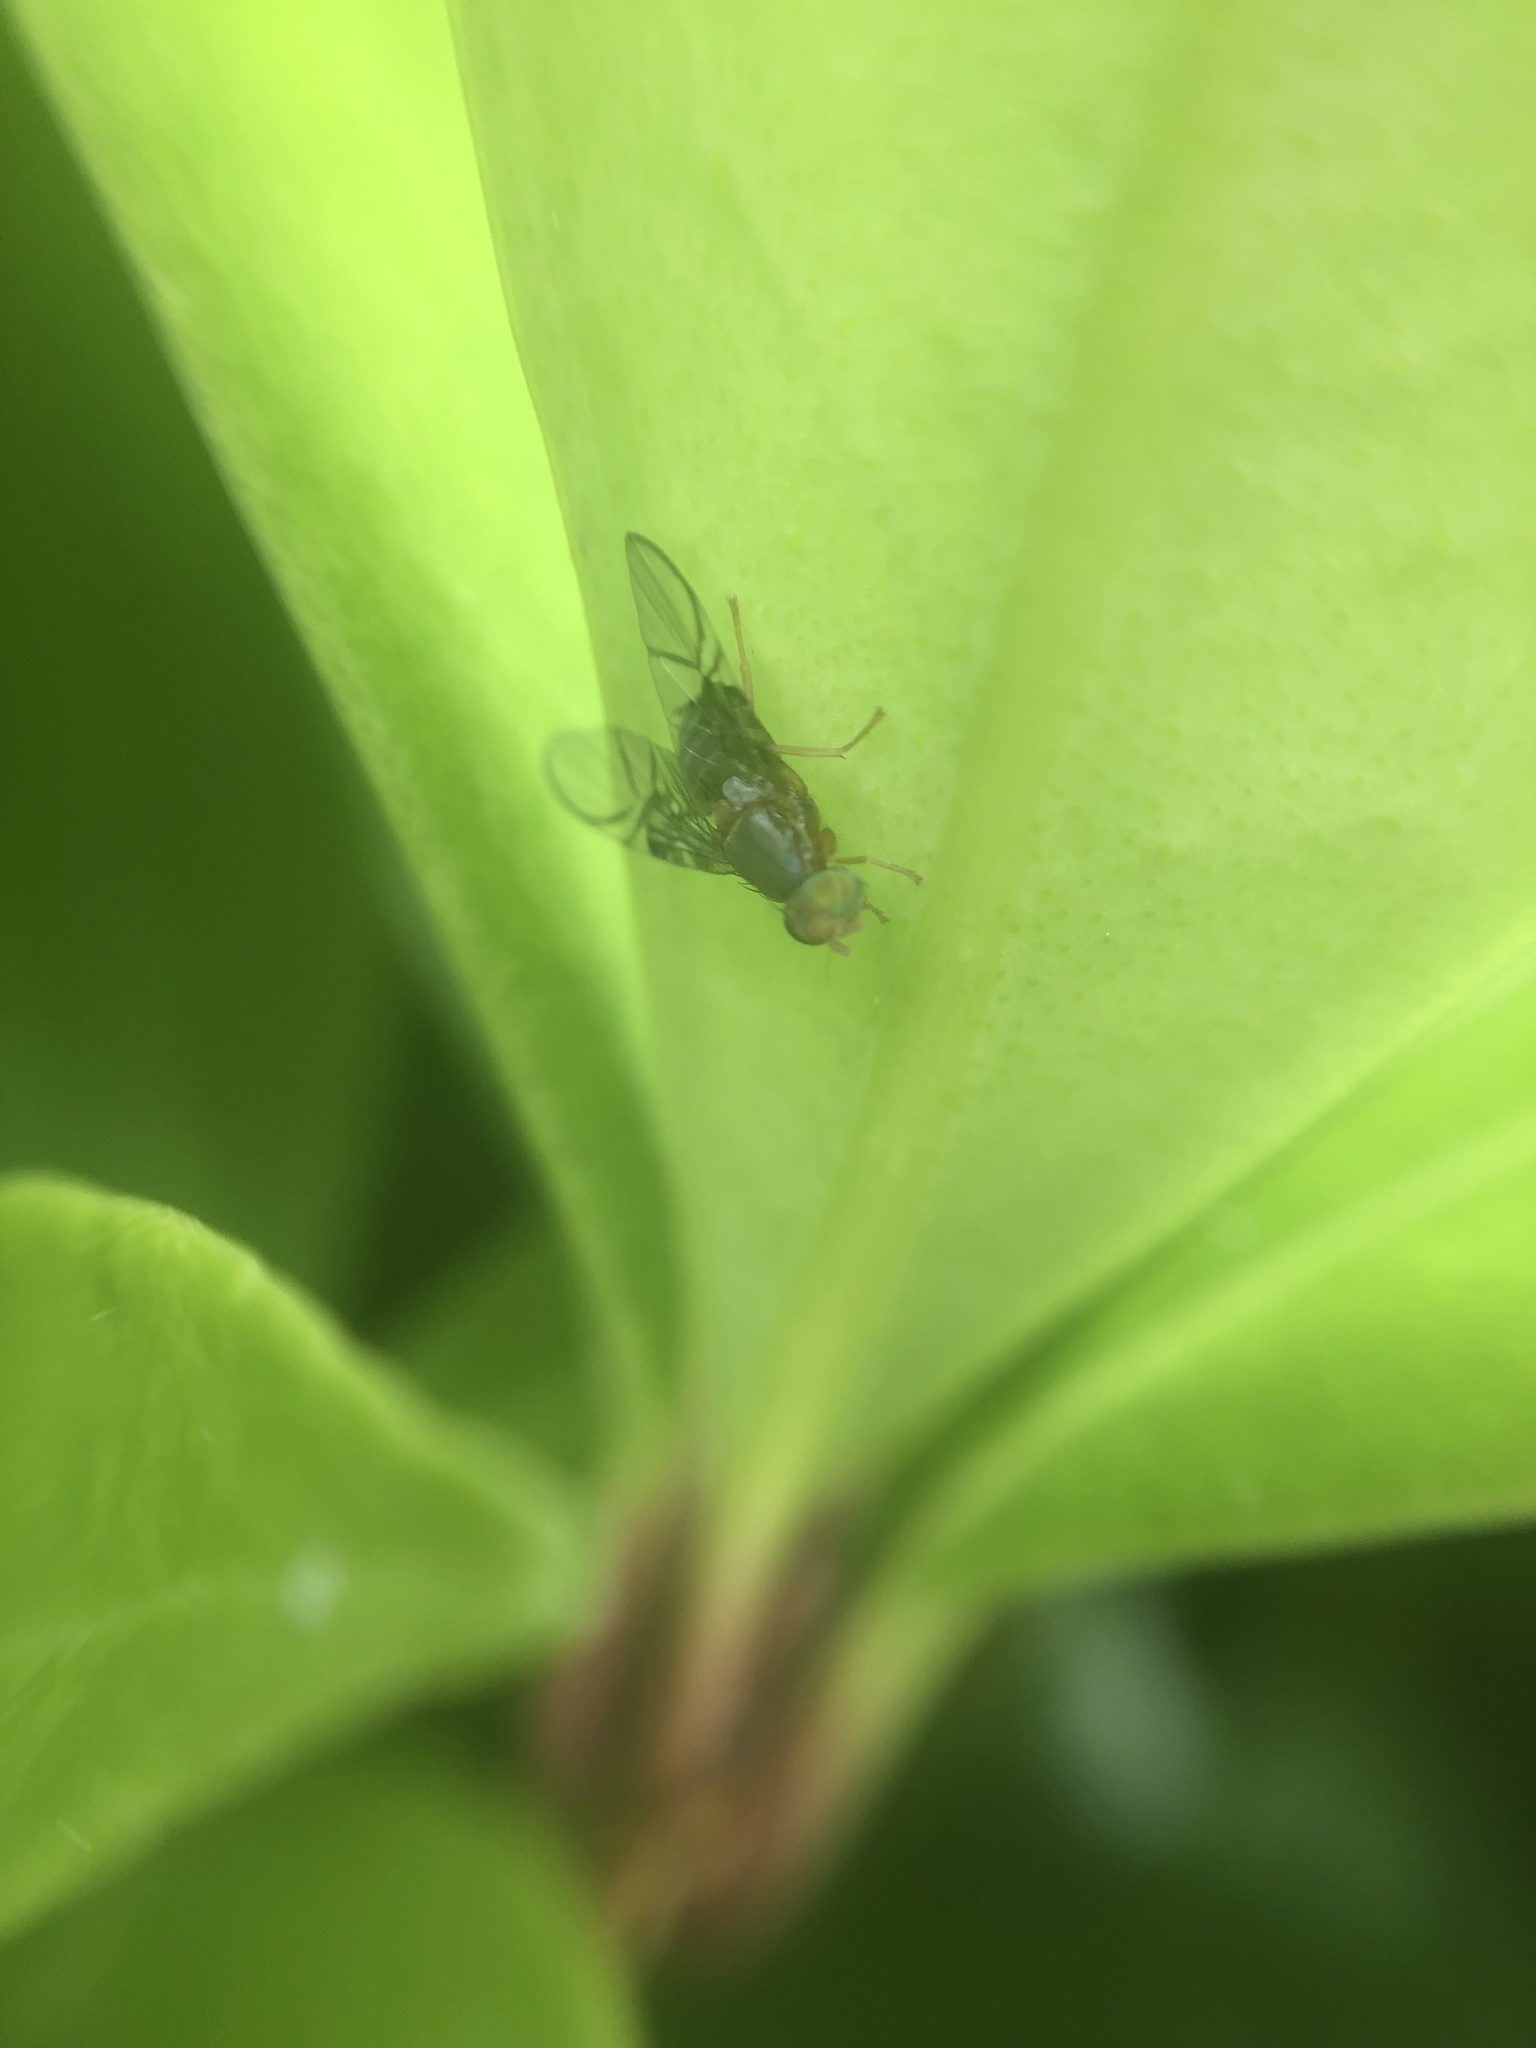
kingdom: Animalia
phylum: Arthropoda
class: Insecta
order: Diptera
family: Tephritidae
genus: Anomoia
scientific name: Anomoia purmunda
